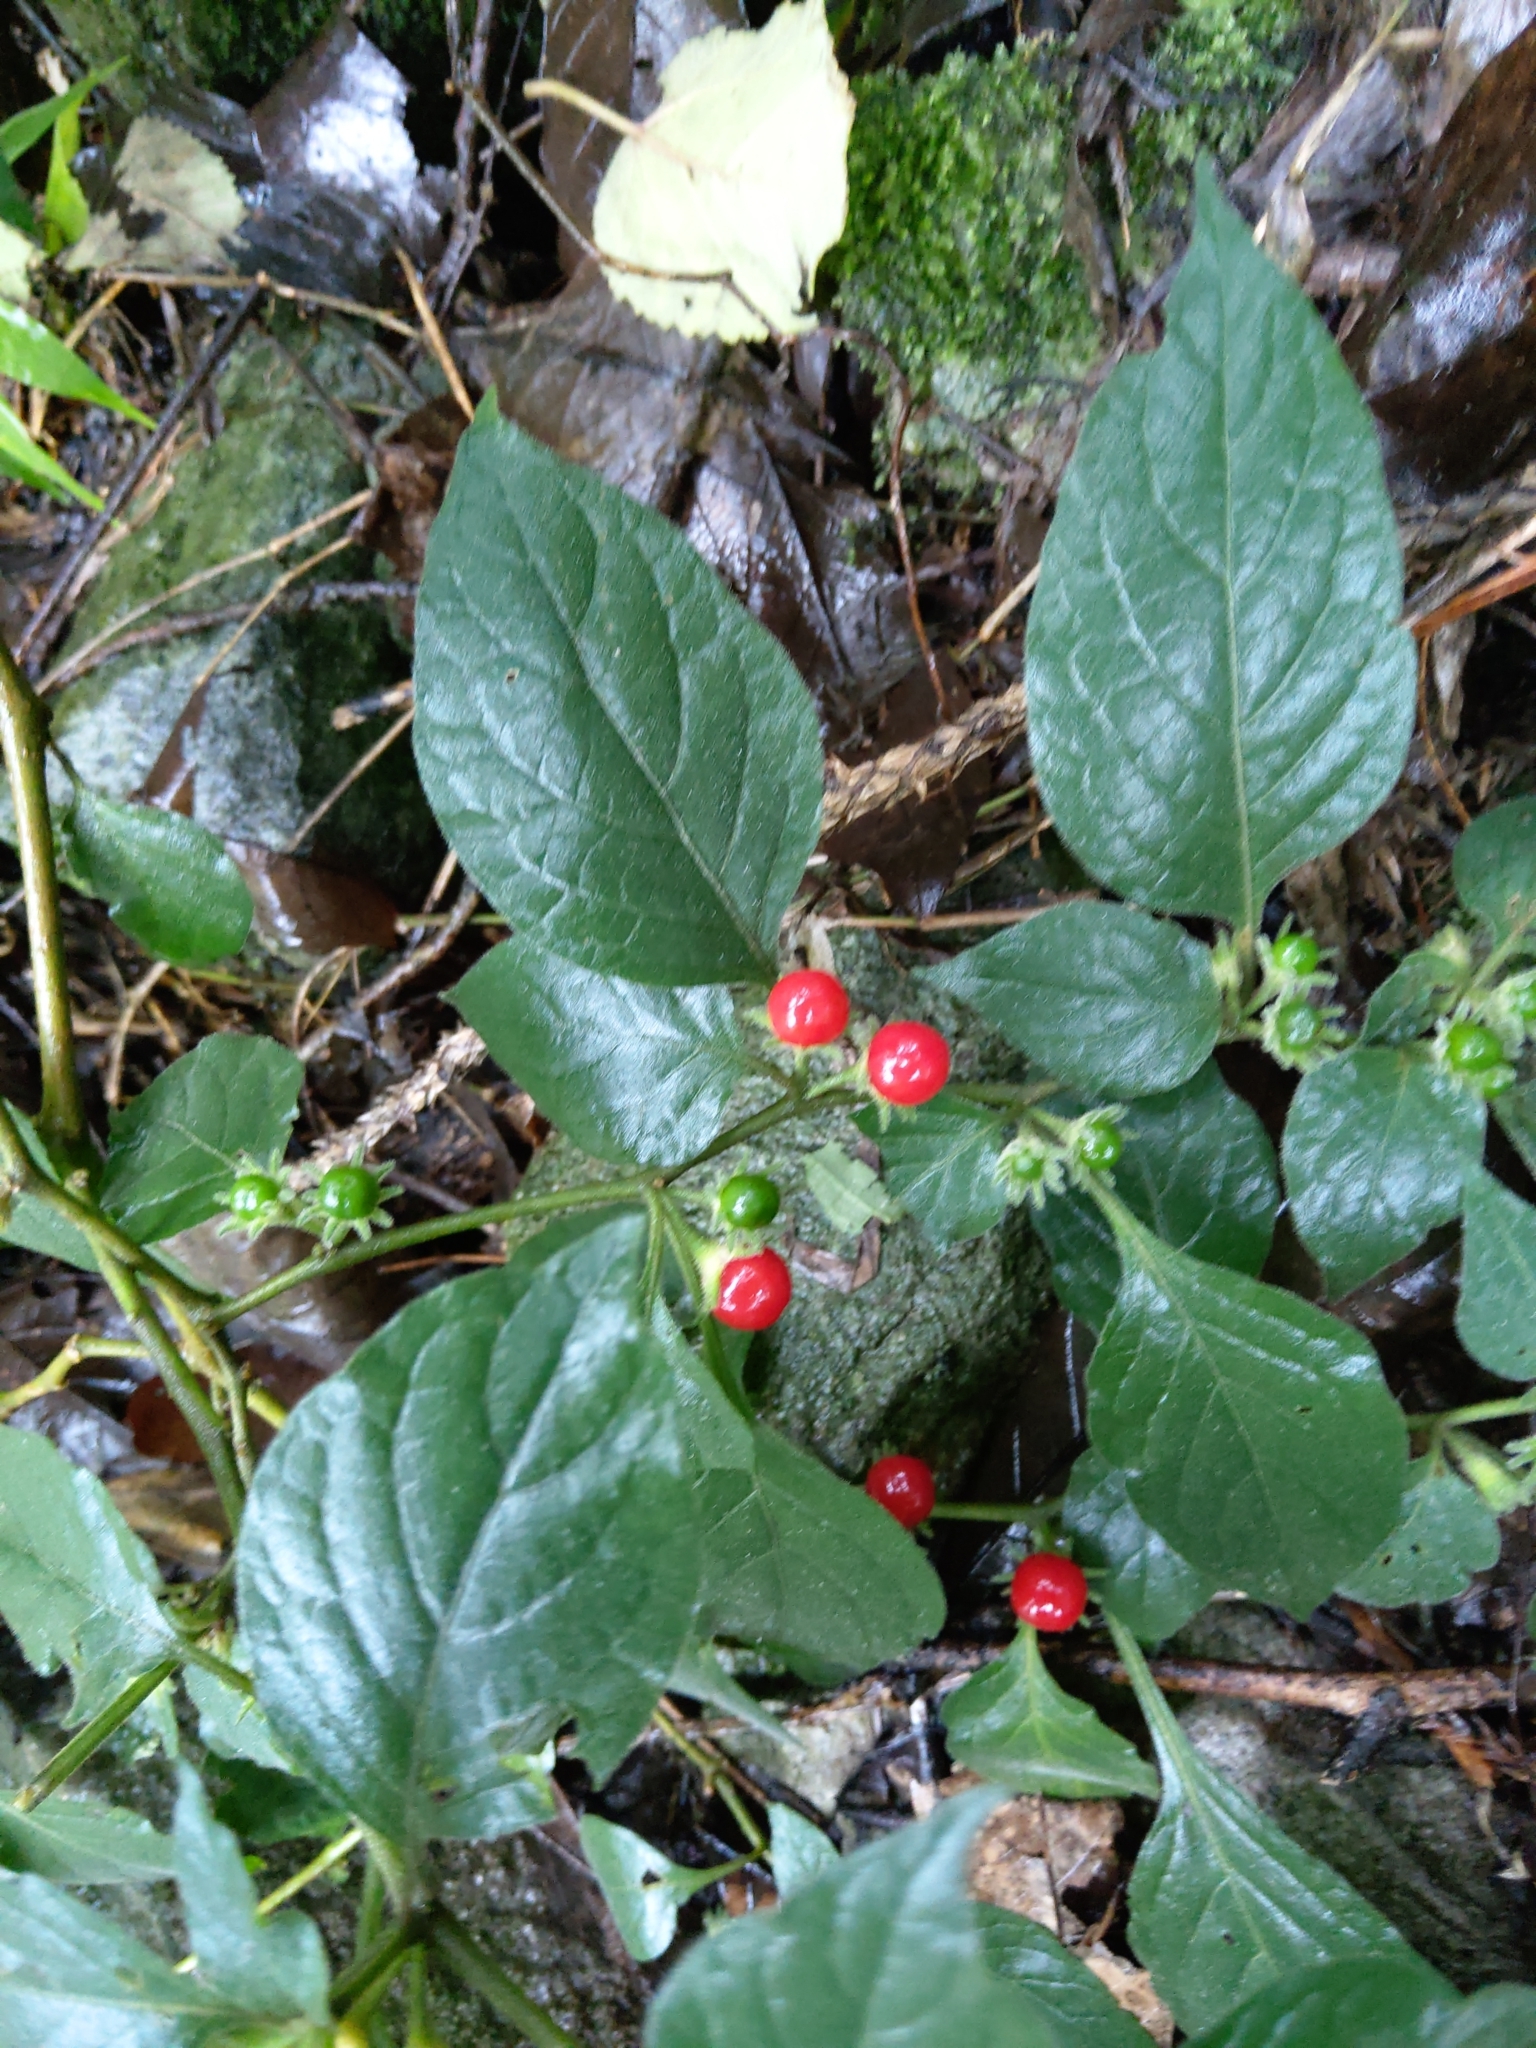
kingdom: Plantae
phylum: Tracheophyta
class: Magnoliopsida
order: Solanales
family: Solanaceae
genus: Lycianthes
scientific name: Lycianthes biflora
